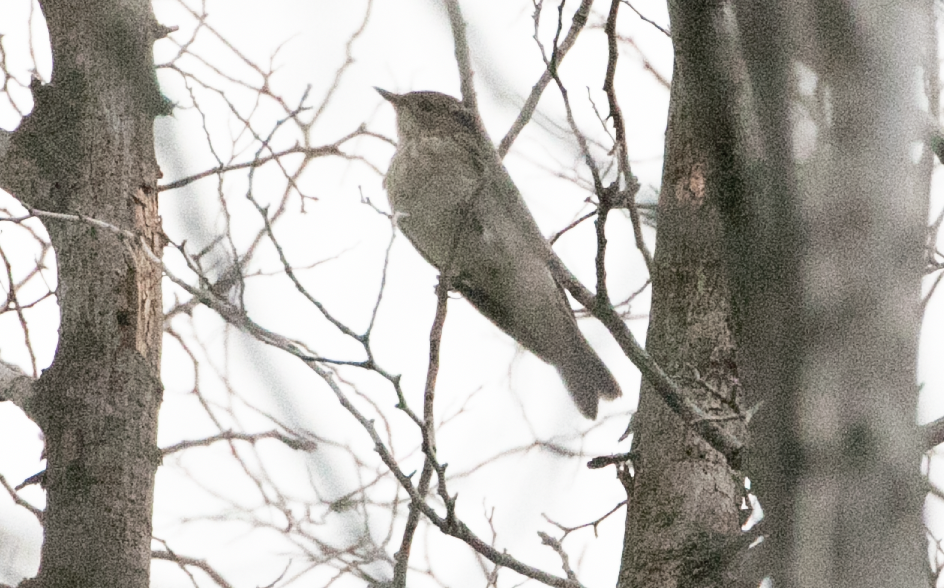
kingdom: Animalia
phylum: Chordata
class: Aves
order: Passeriformes
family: Muscicapidae
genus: Muscicapa
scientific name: Muscicapa striata
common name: Spotted flycatcher
